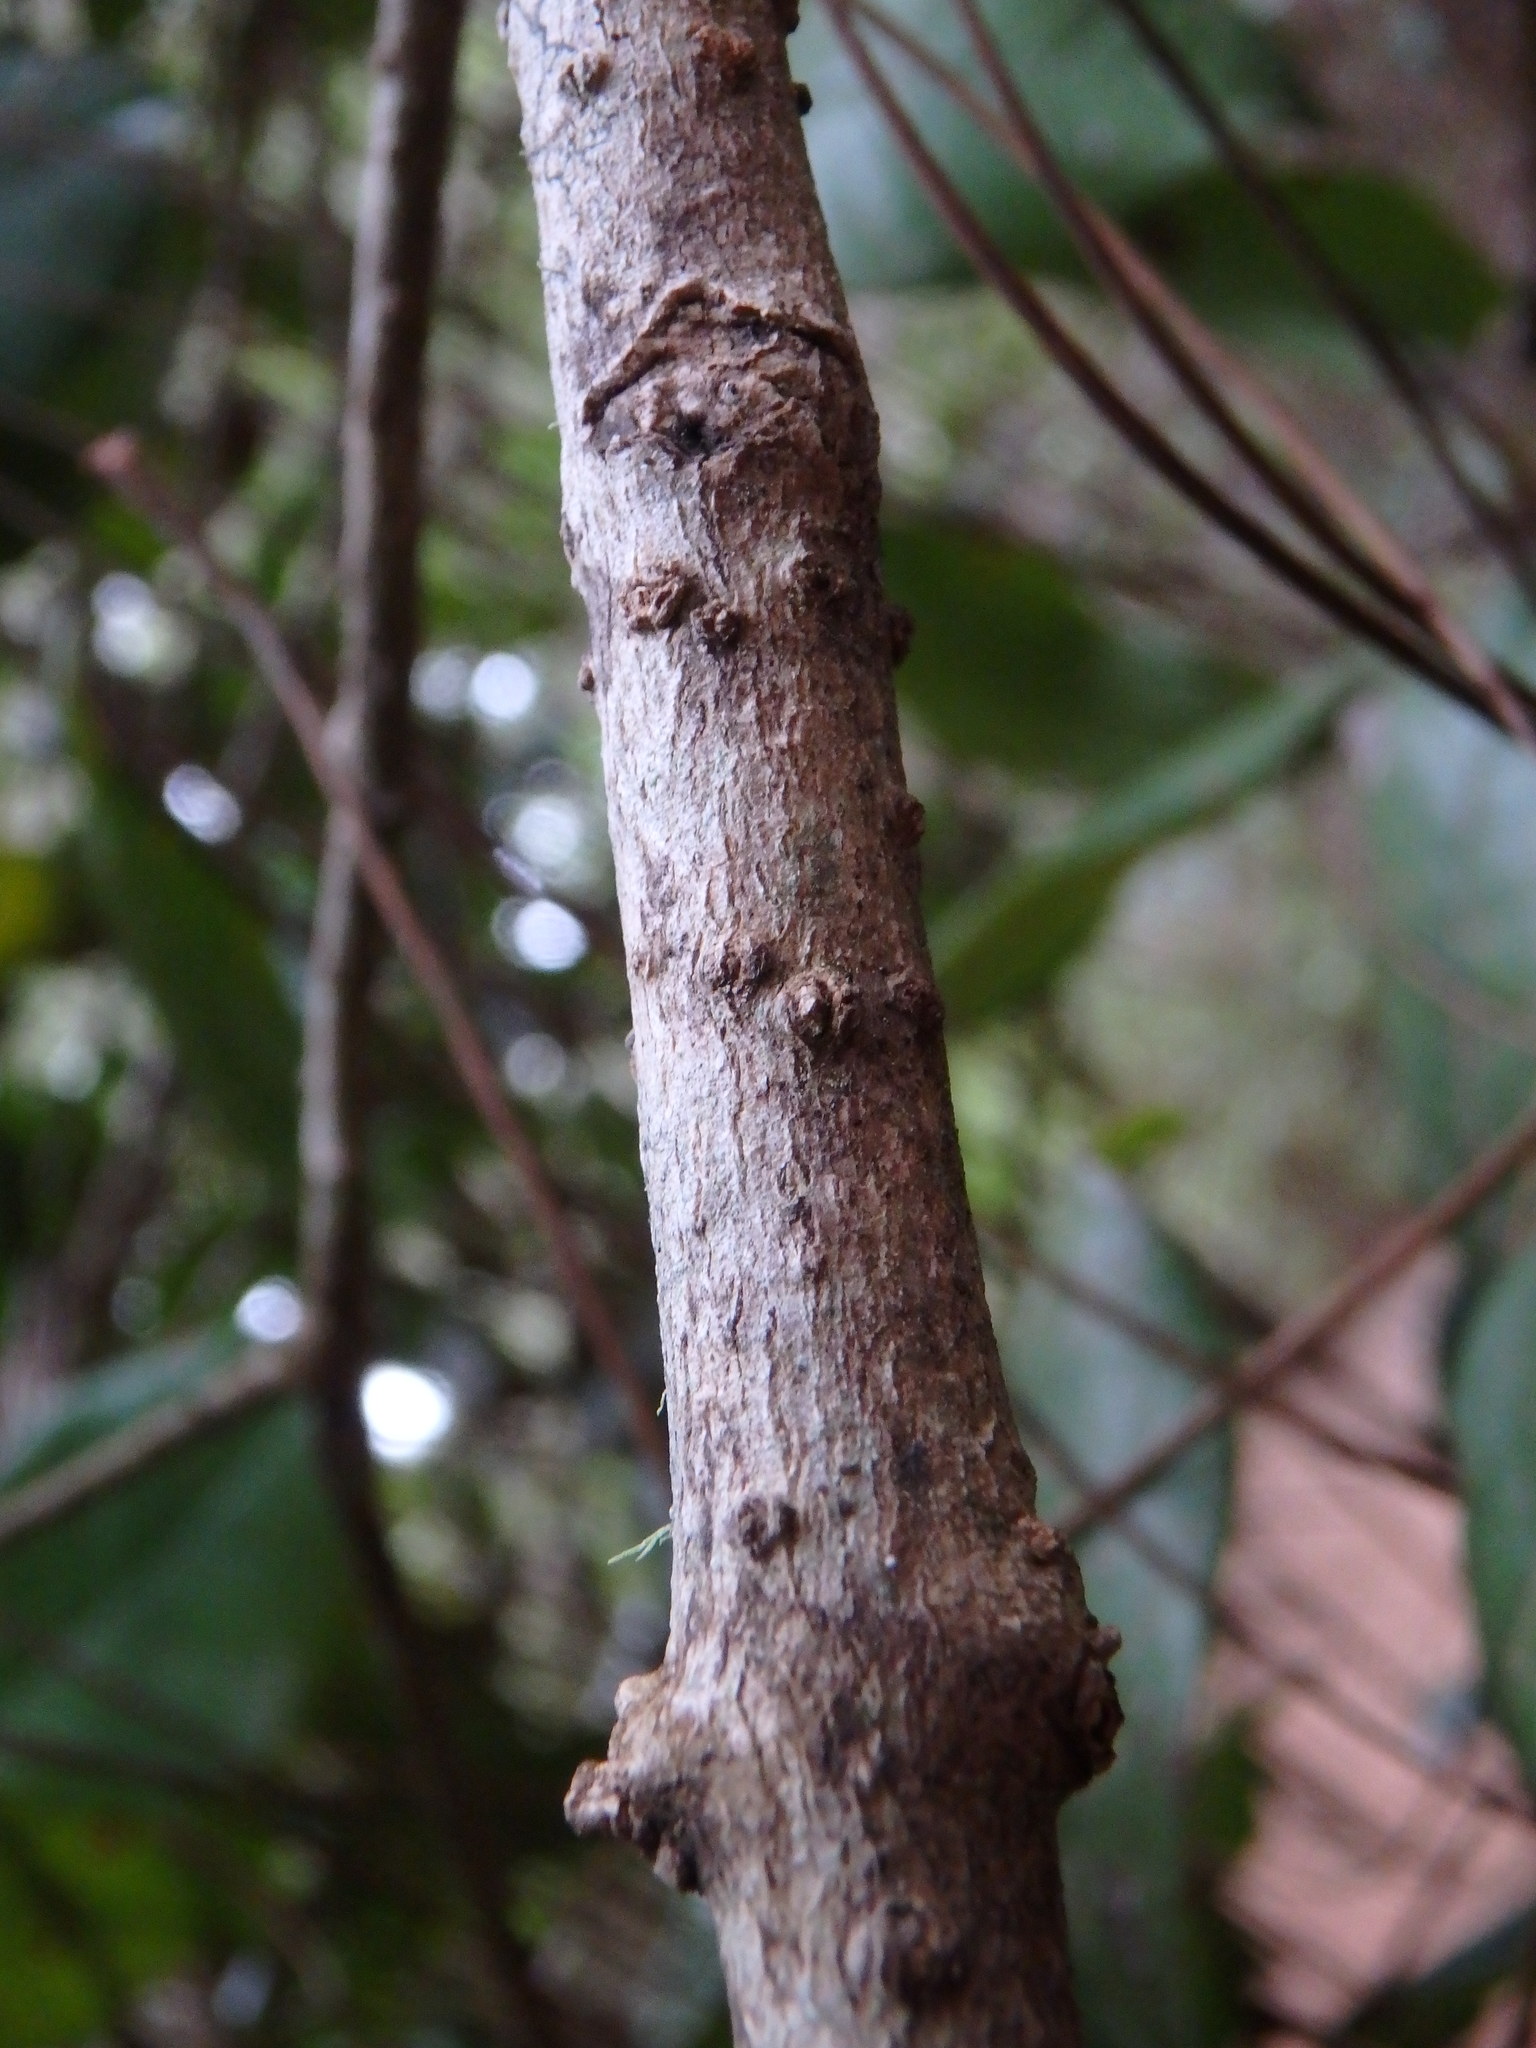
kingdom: Plantae
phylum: Tracheophyta
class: Magnoliopsida
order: Lamiales
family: Oleaceae
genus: Picconia
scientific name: Picconia excelsa
